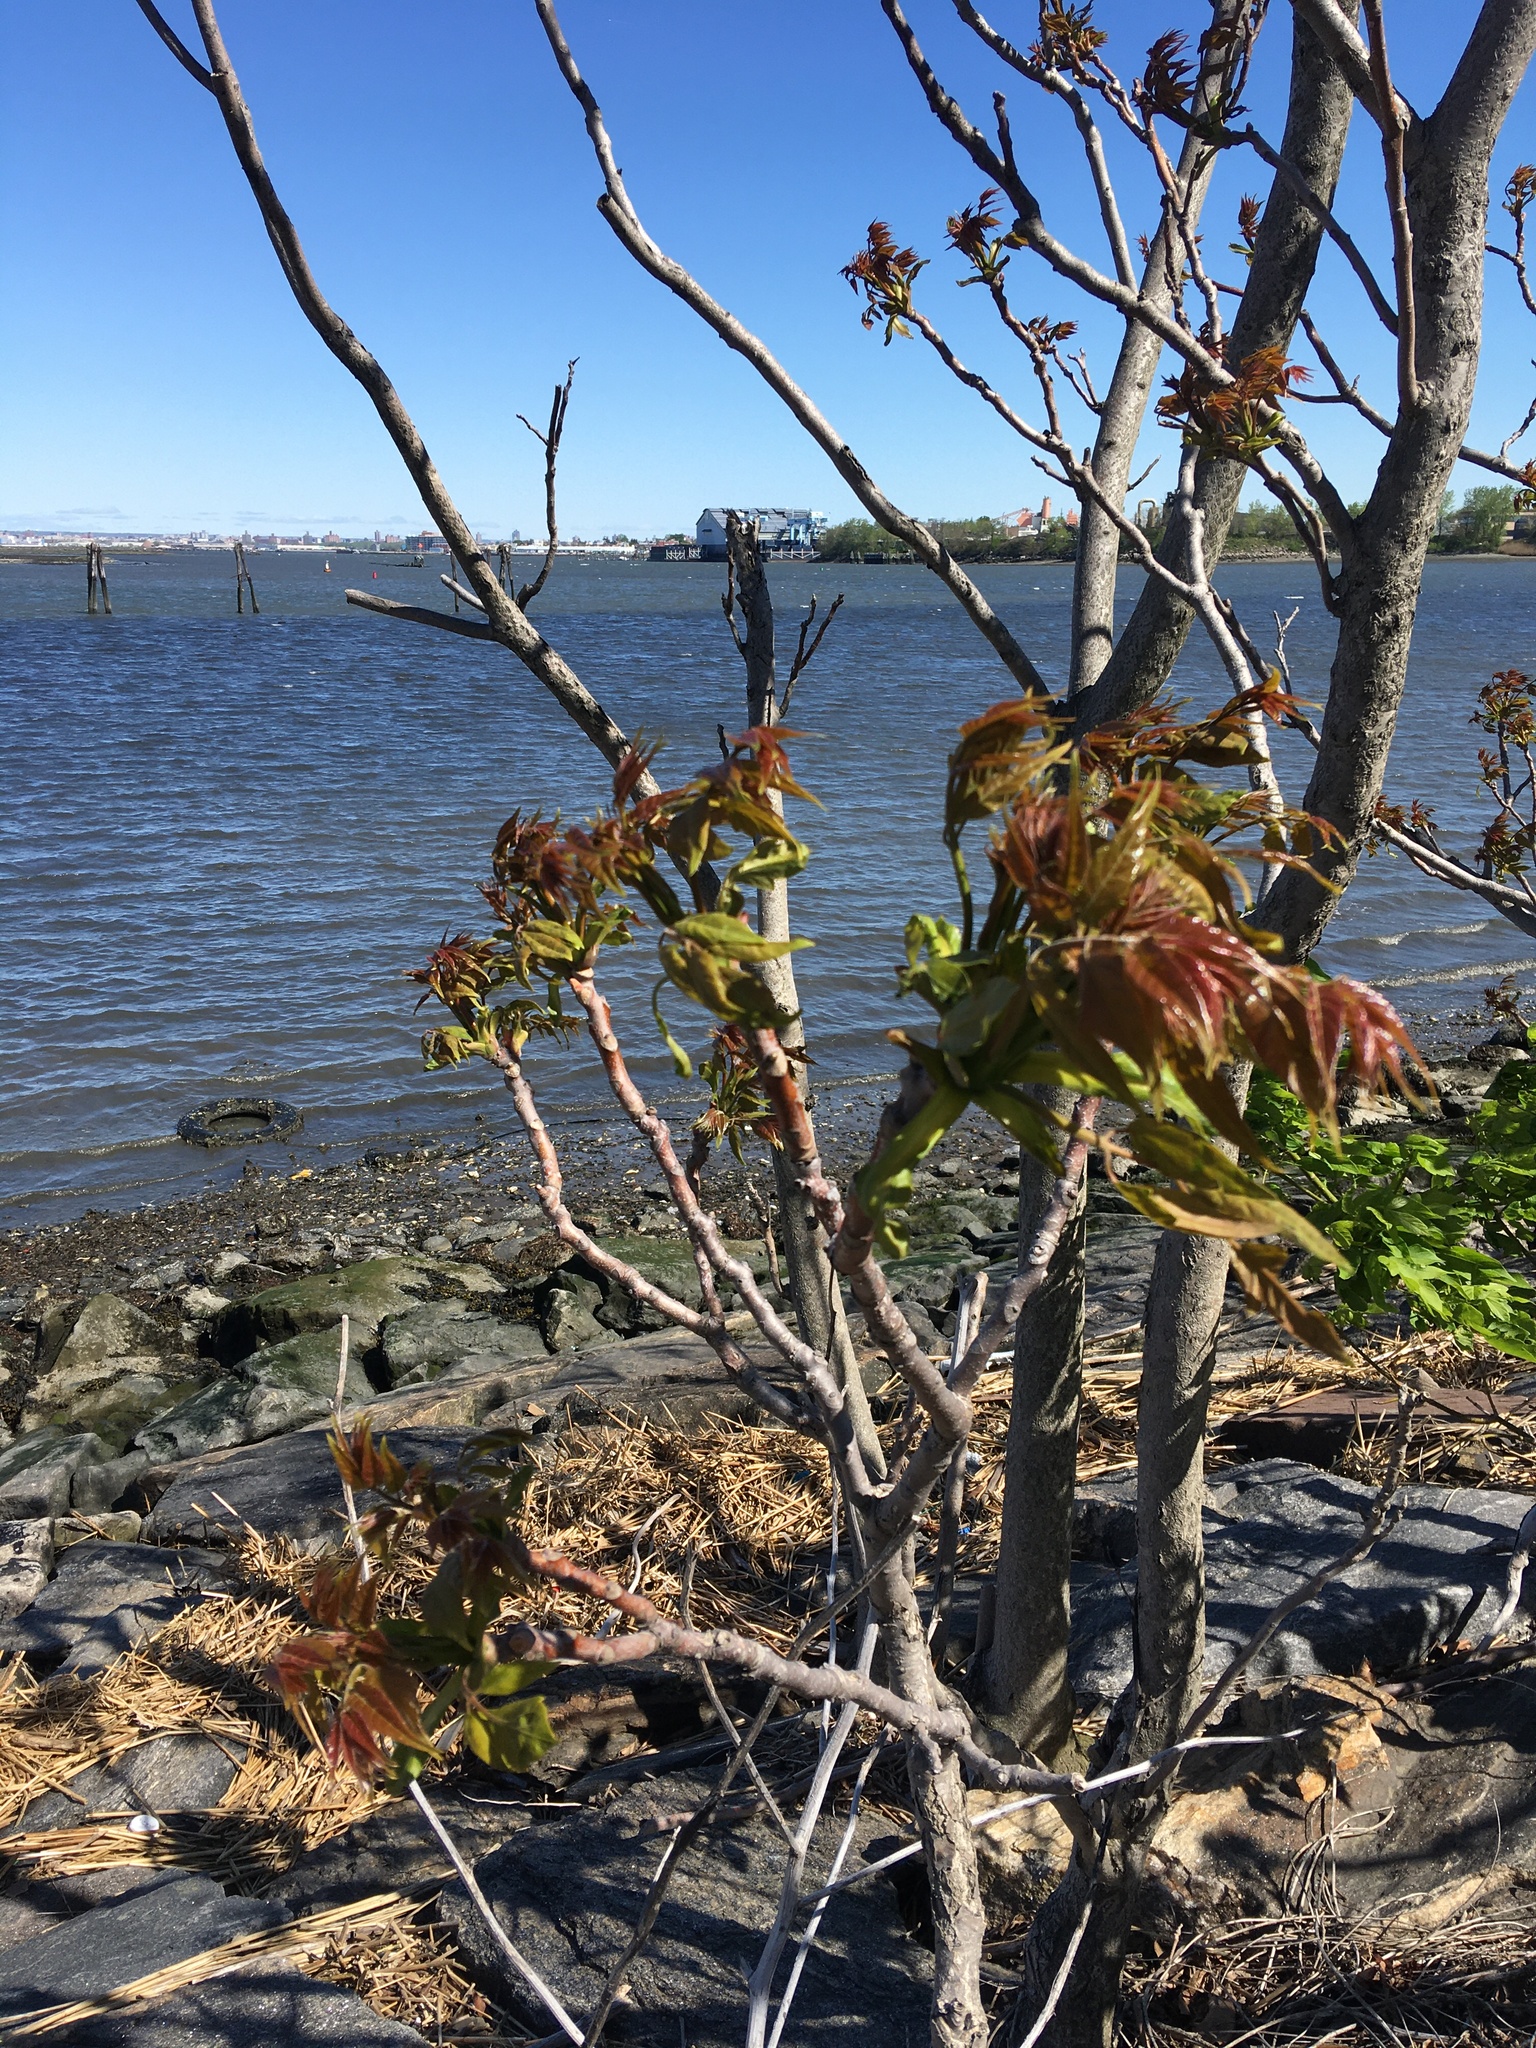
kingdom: Plantae
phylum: Tracheophyta
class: Magnoliopsida
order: Sapindales
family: Simaroubaceae
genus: Ailanthus
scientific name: Ailanthus altissima
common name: Tree-of-heaven
